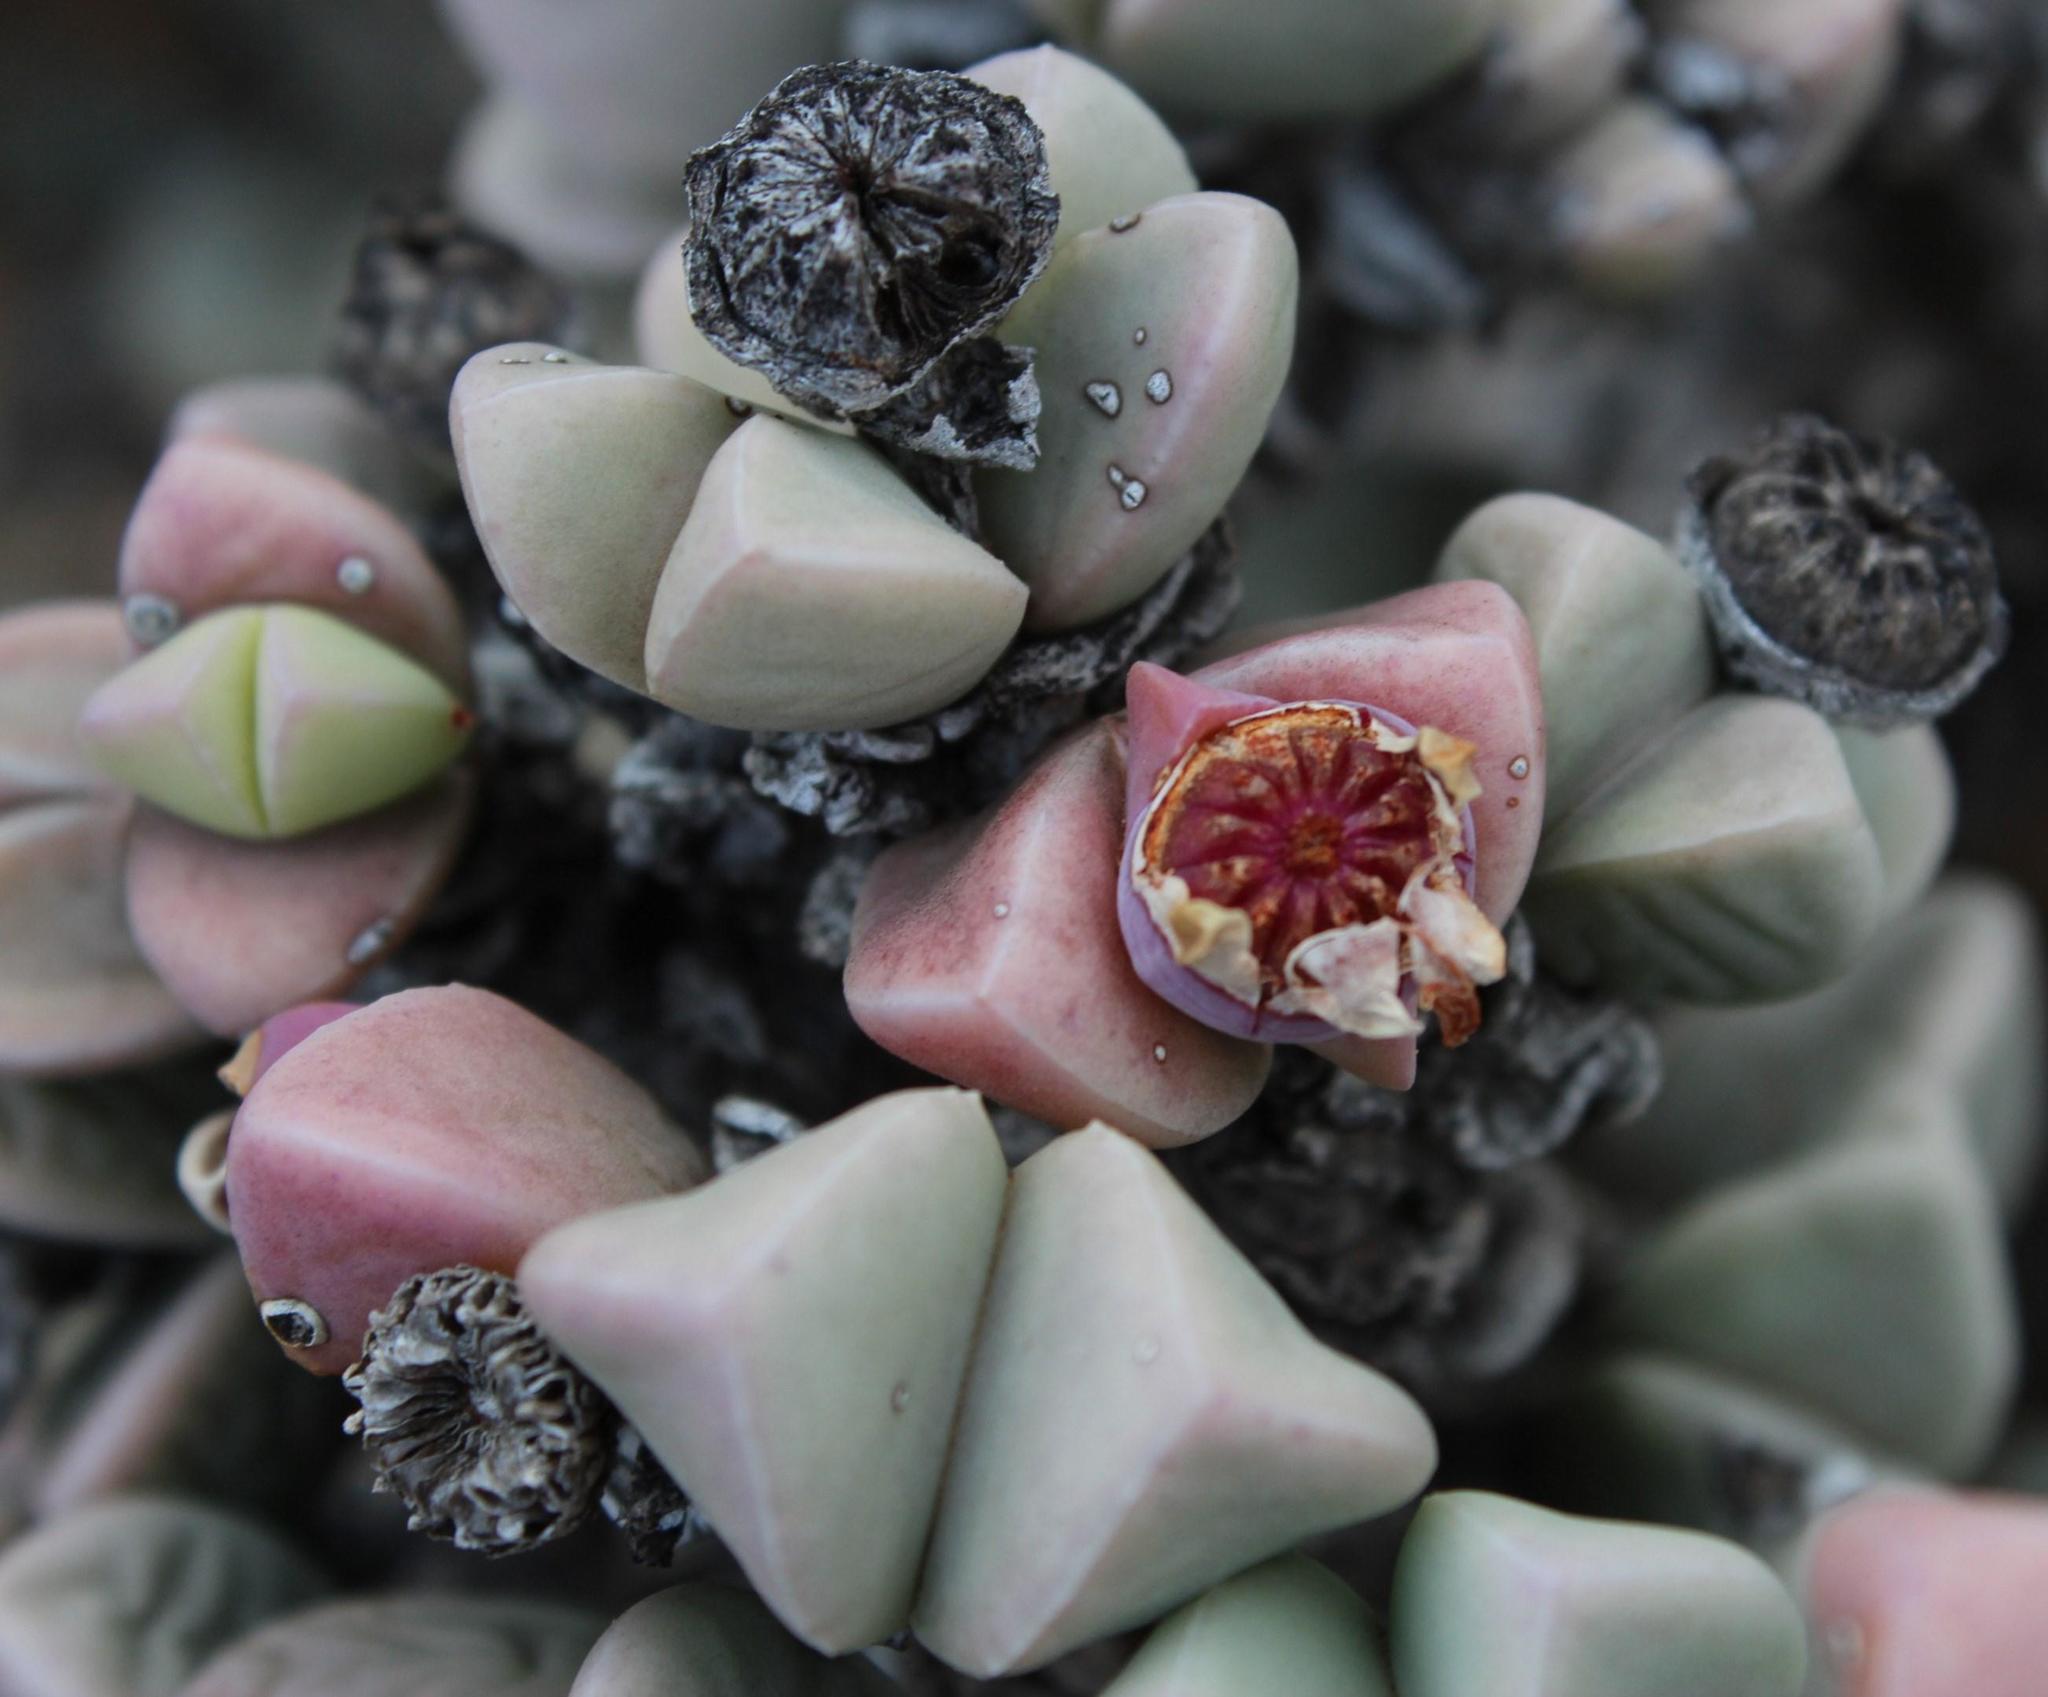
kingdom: Plantae
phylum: Tracheophyta
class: Magnoliopsida
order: Caryophyllales
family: Aizoaceae
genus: Schlechteranthus
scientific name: Schlechteranthus hallii
